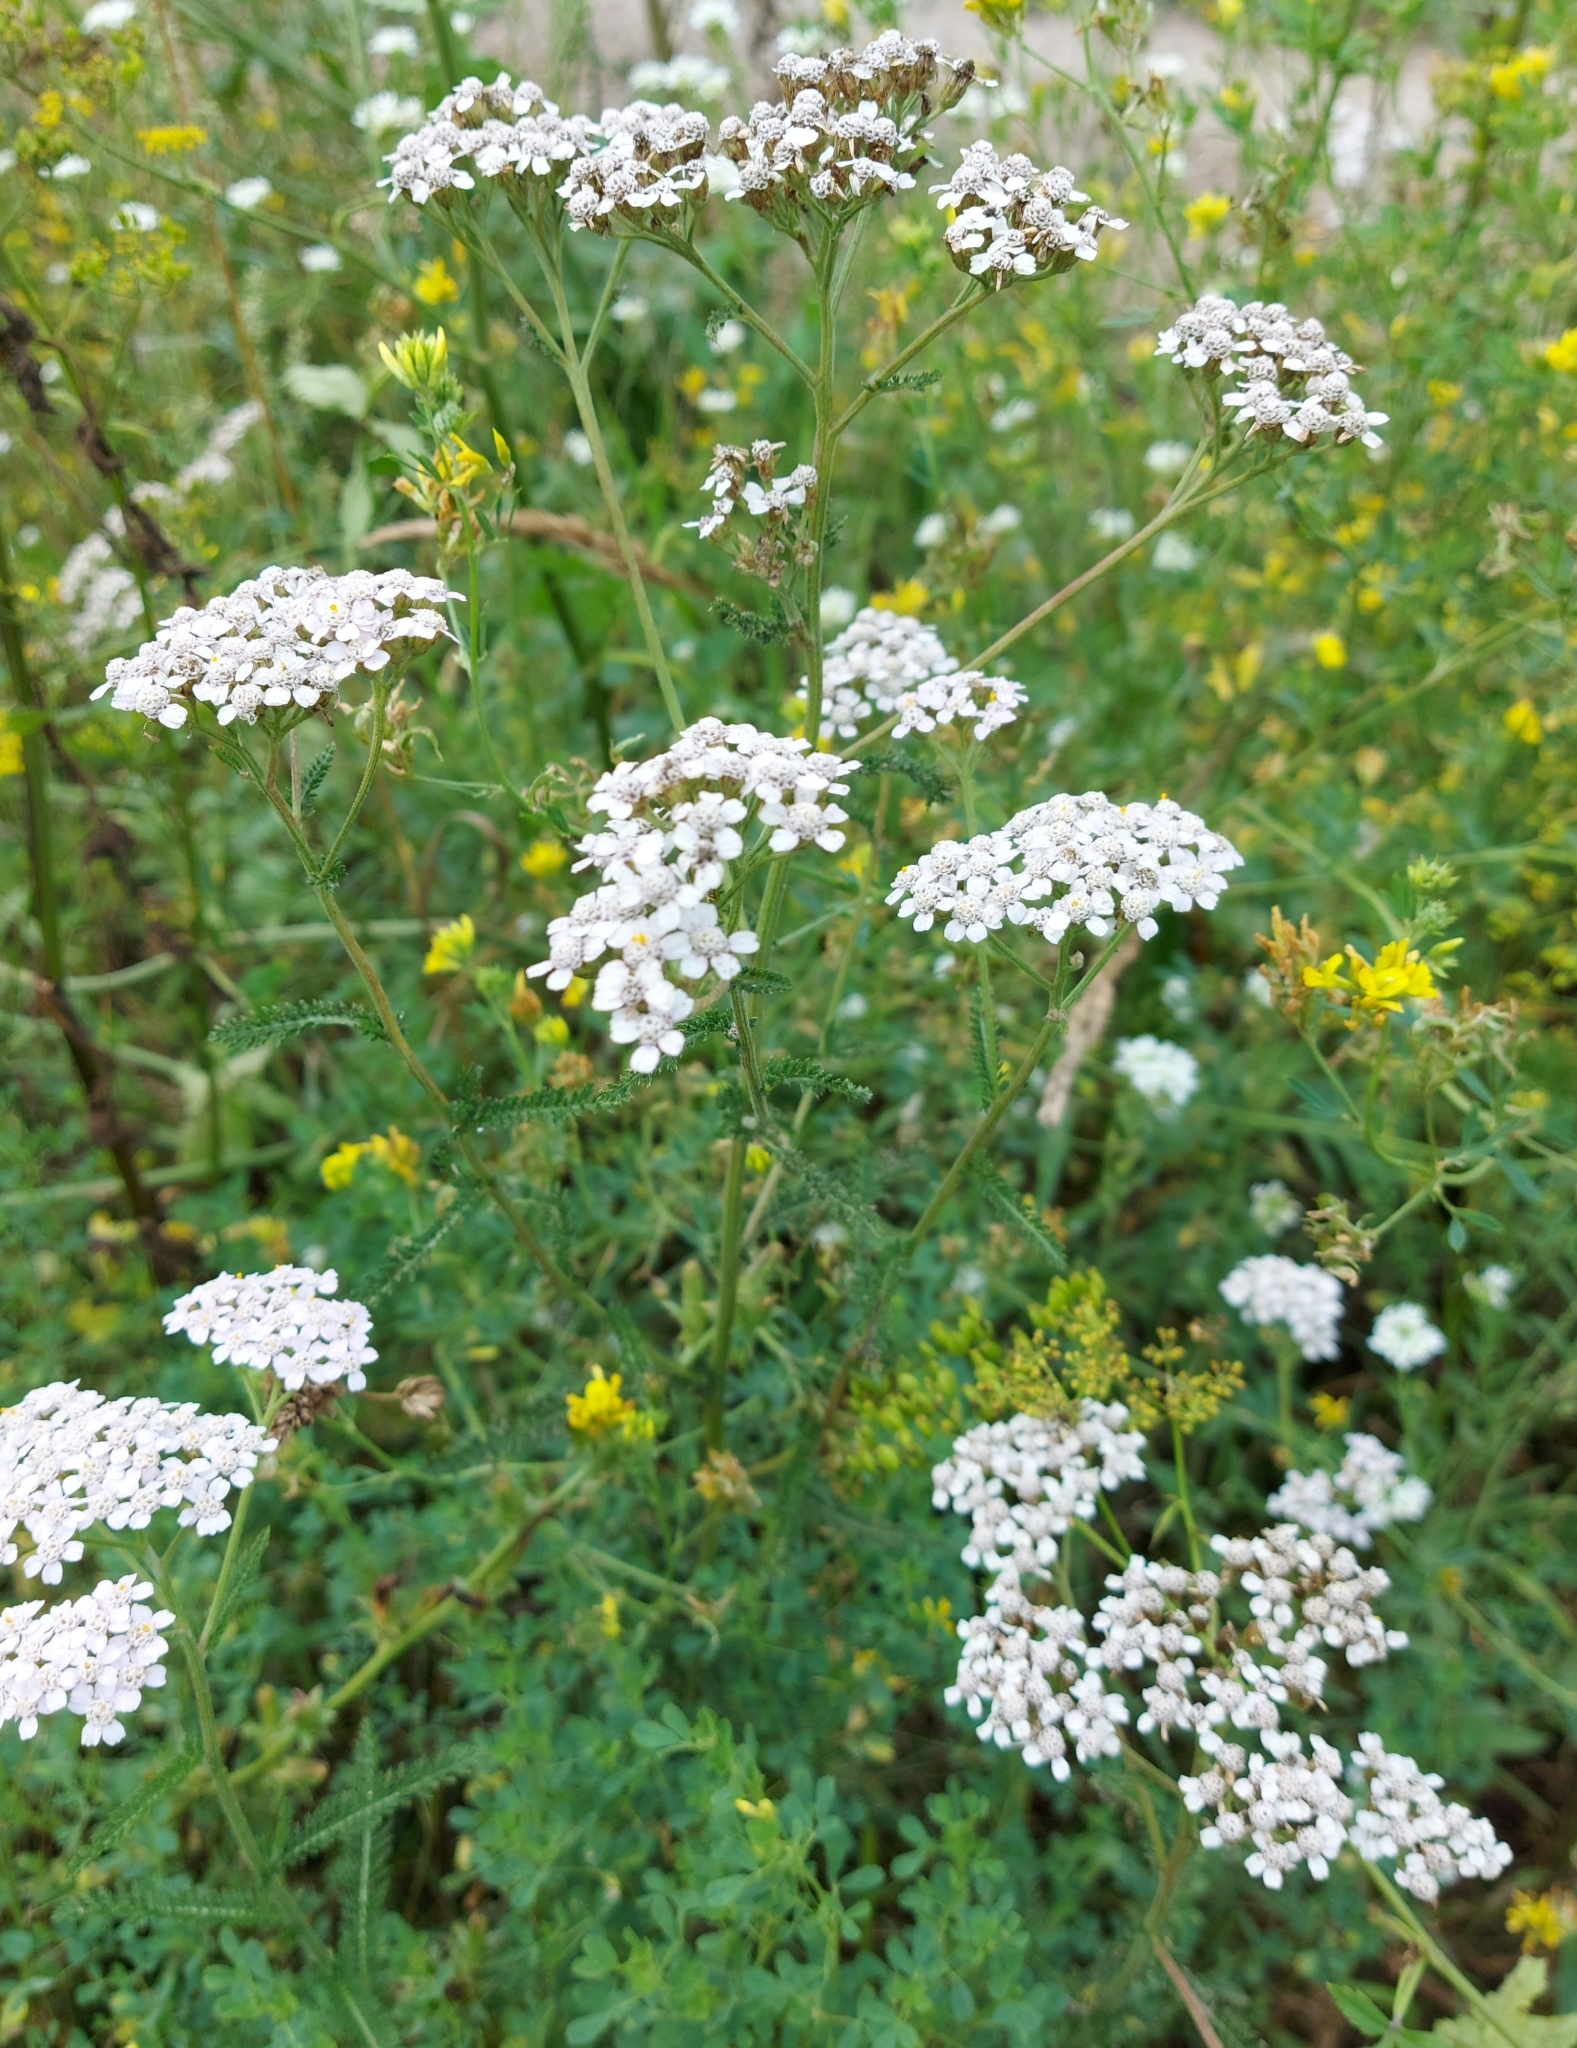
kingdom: Plantae
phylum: Tracheophyta
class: Magnoliopsida
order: Asterales
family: Asteraceae
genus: Achillea
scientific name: Achillea asiatica
